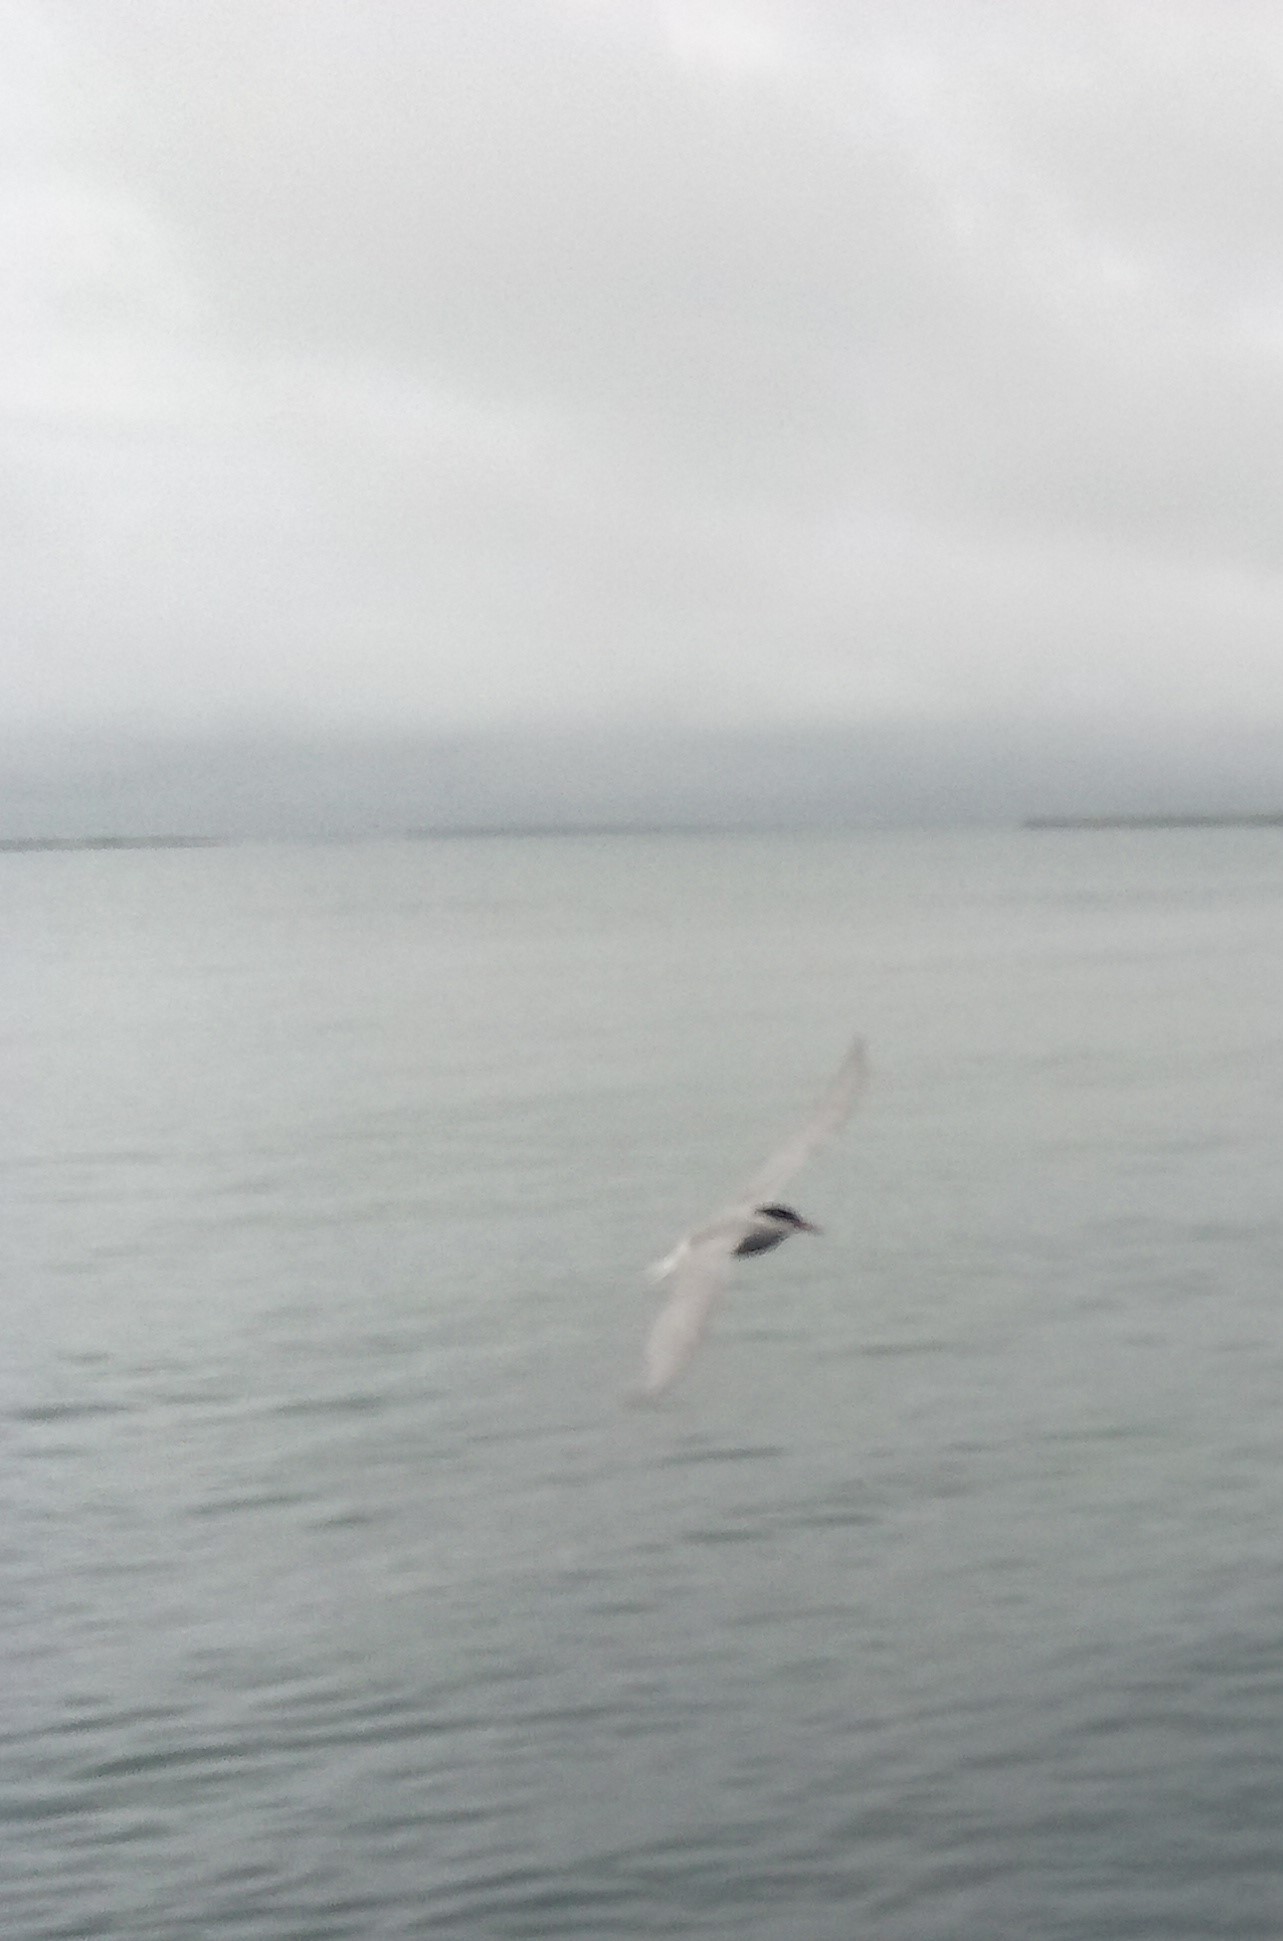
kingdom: Animalia
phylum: Chordata
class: Aves
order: Charadriiformes
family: Laridae
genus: Sterna
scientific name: Sterna paradisaea
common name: Arctic tern
